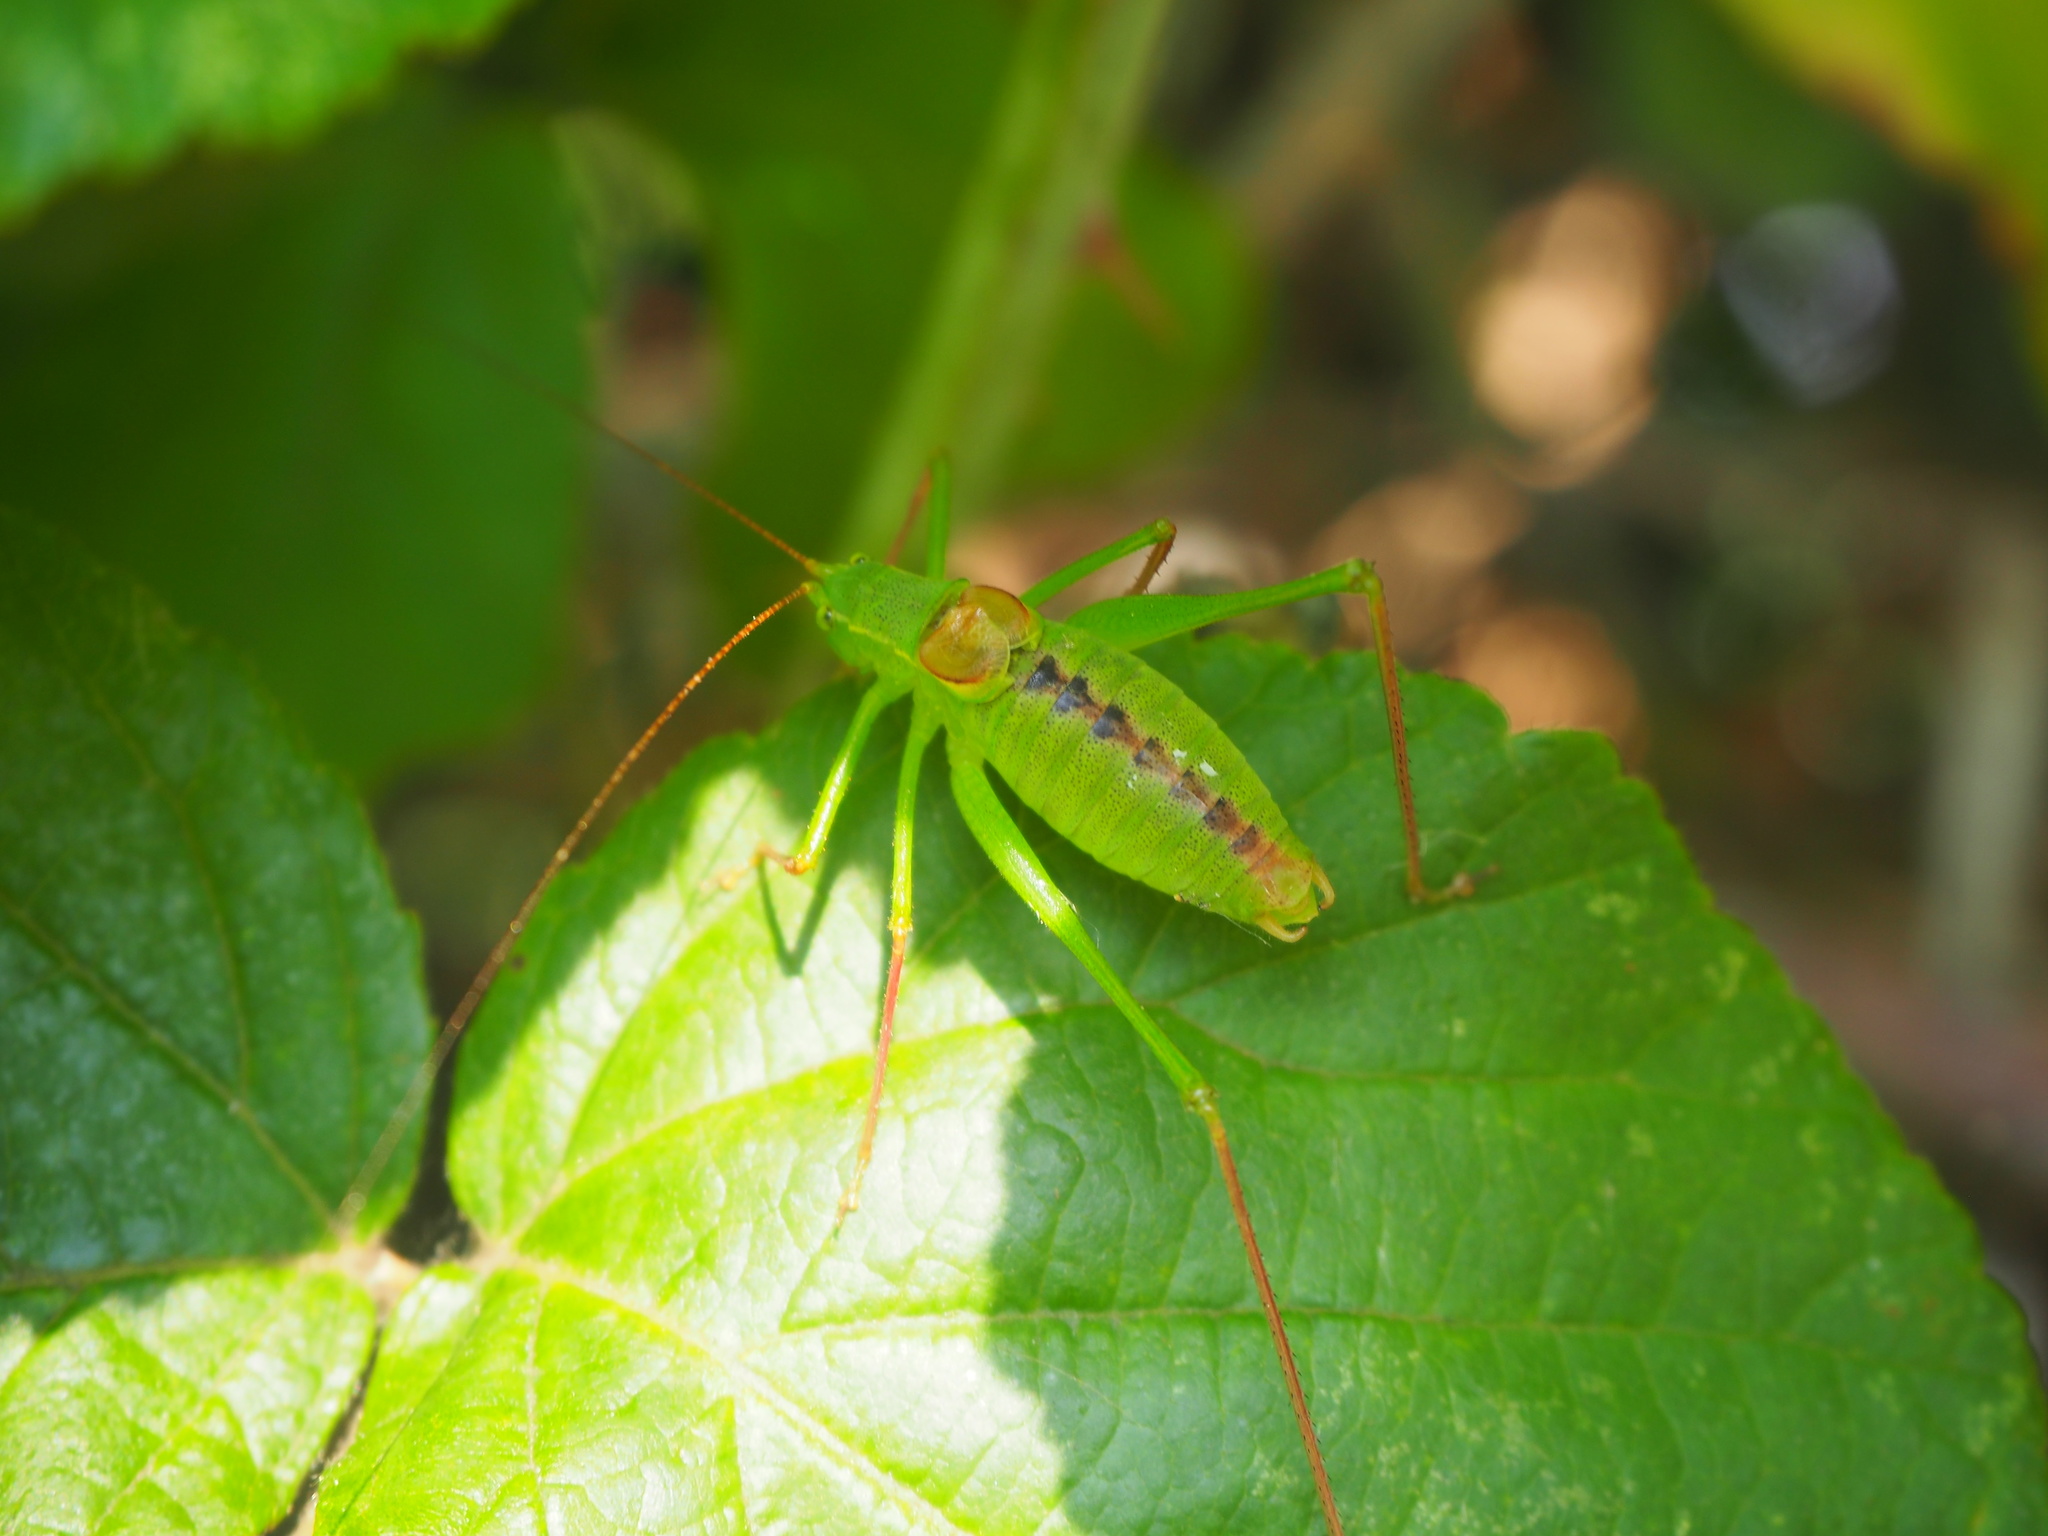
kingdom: Animalia
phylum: Arthropoda
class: Insecta
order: Orthoptera
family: Tettigoniidae
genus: Leptophyes
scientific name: Leptophyes laticauda
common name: Long-tailed speckled bush-cricket
